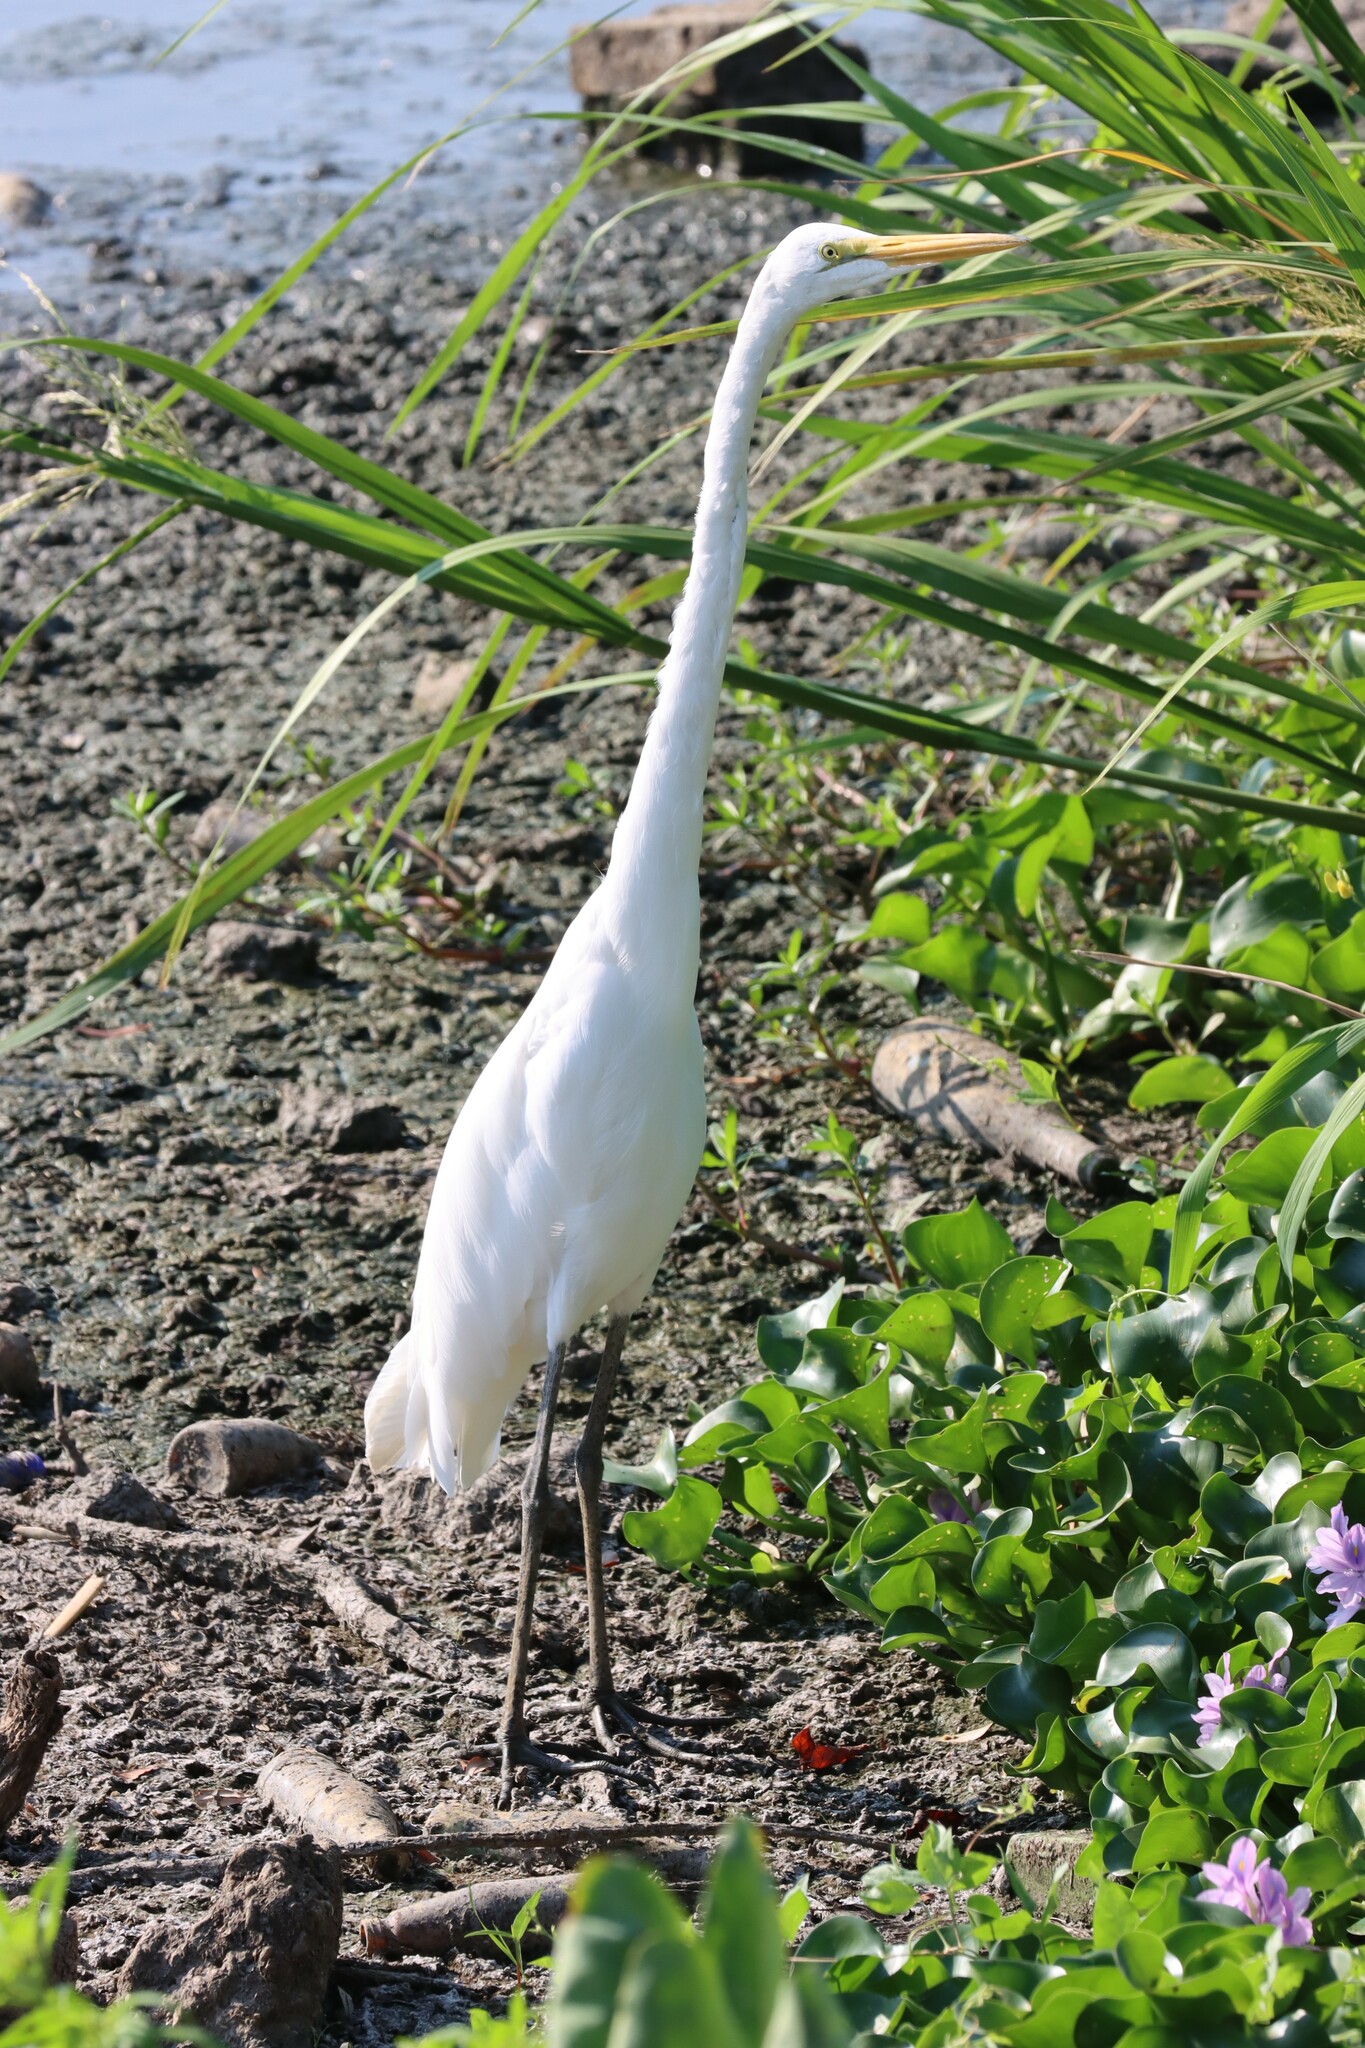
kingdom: Animalia
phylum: Chordata
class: Aves
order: Pelecaniformes
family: Ardeidae
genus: Ardea
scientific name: Ardea alba
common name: Great egret
